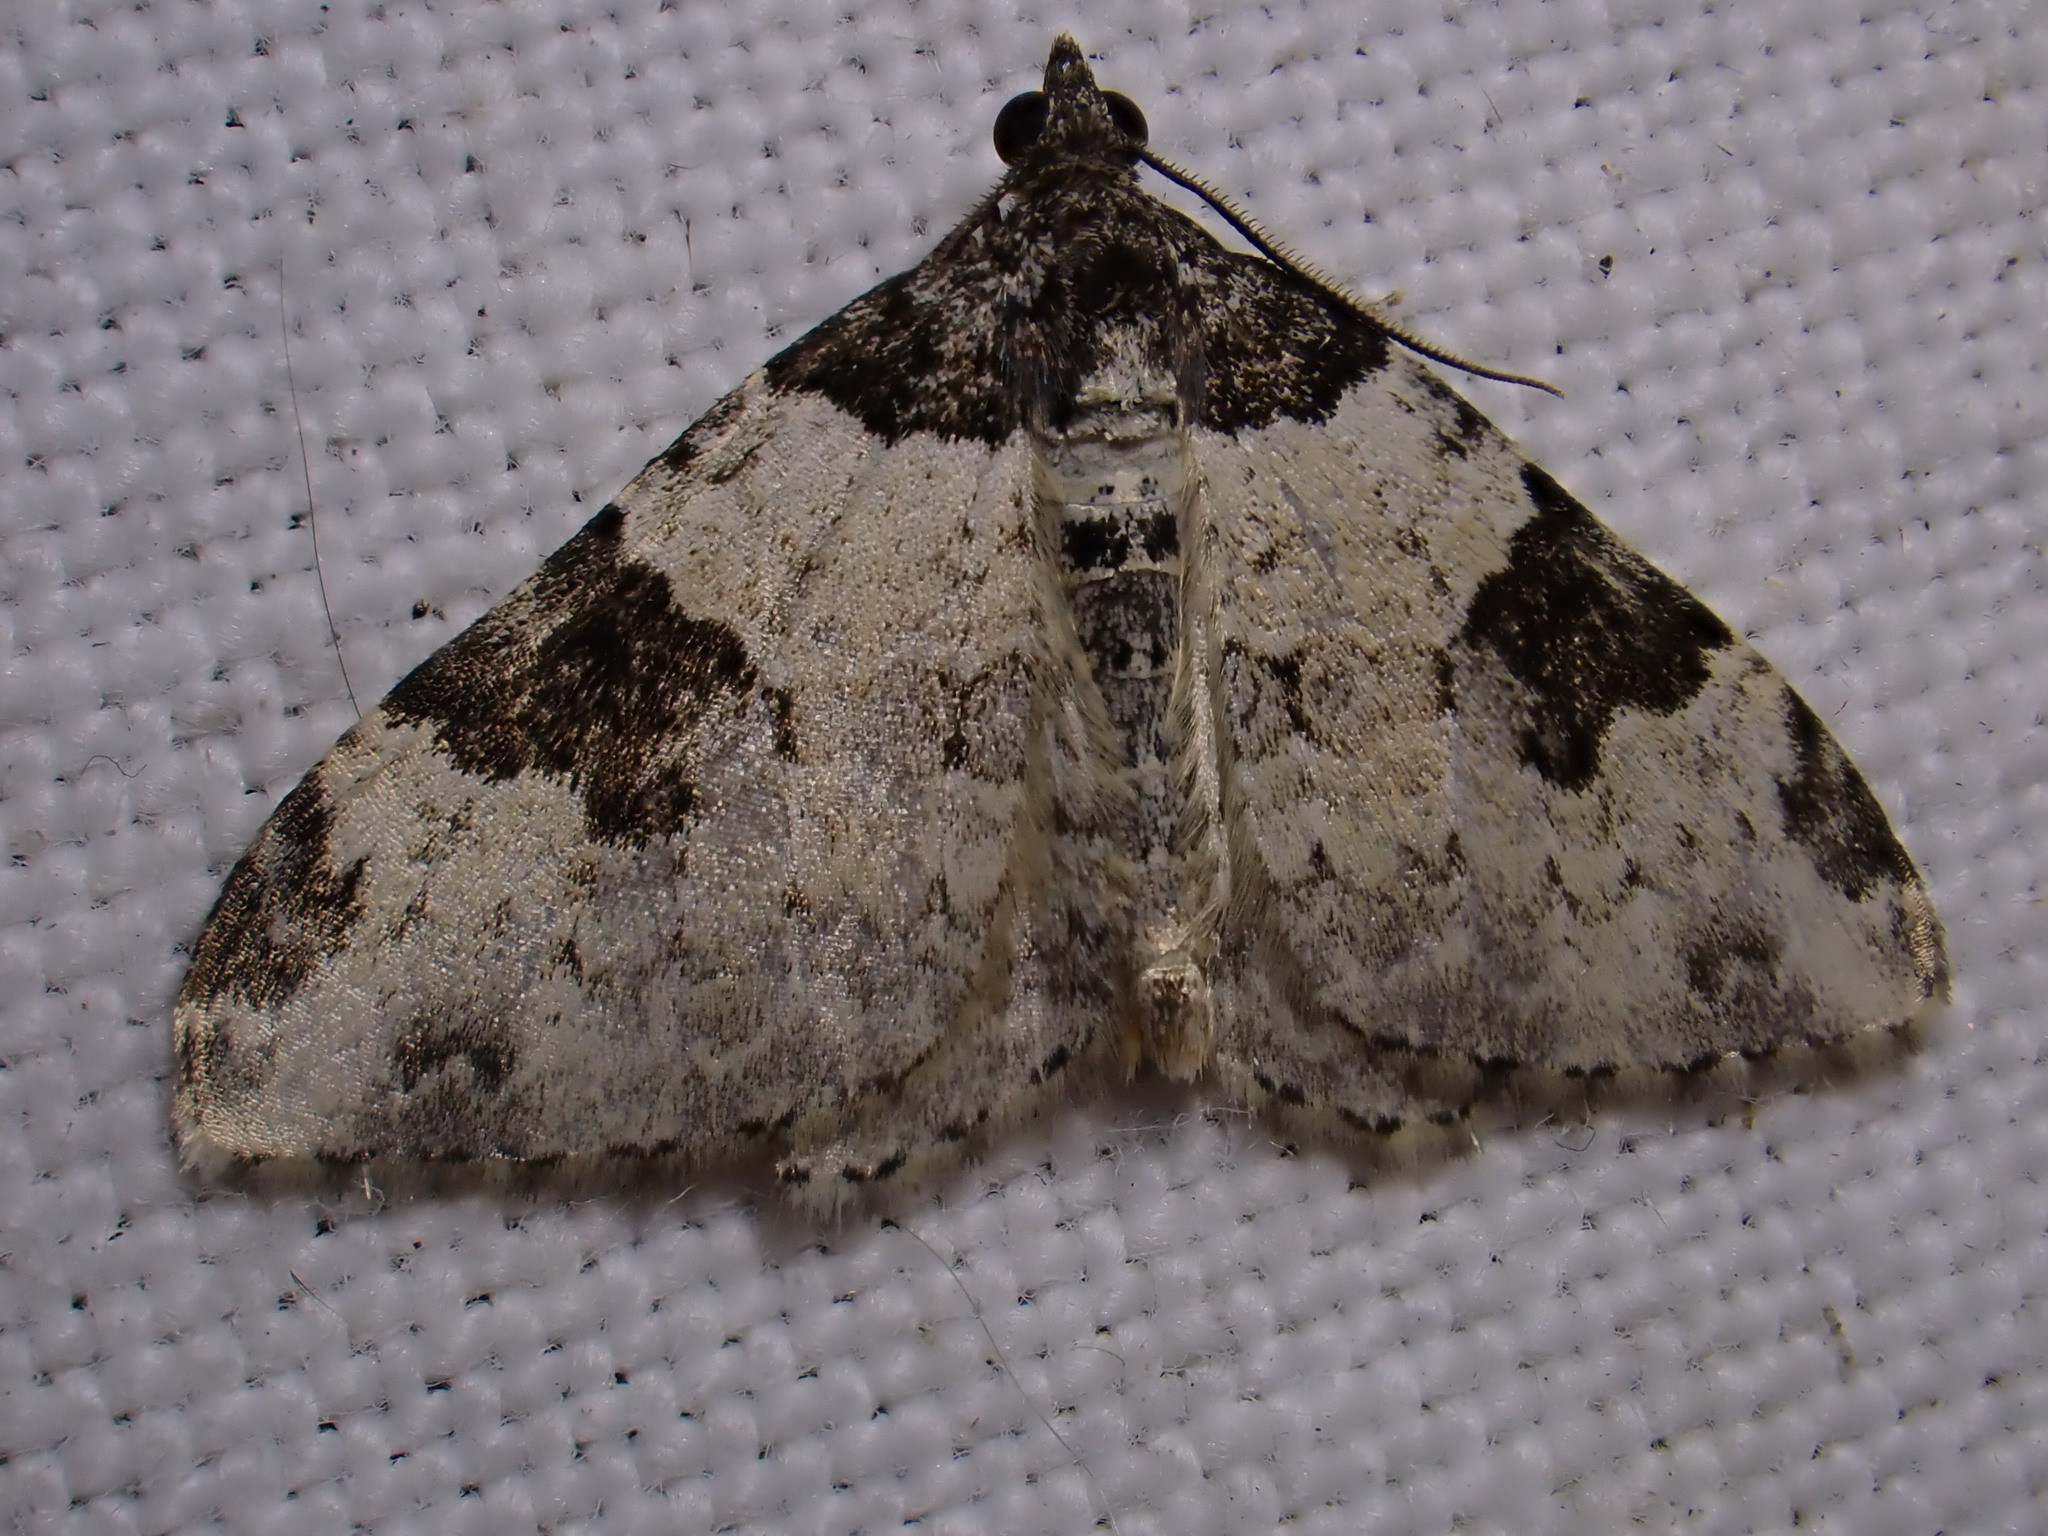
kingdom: Animalia
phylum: Arthropoda
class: Insecta
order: Lepidoptera
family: Geometridae
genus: Xanthorhoe
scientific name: Xanthorhoe fluctuata
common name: Garden carpet
